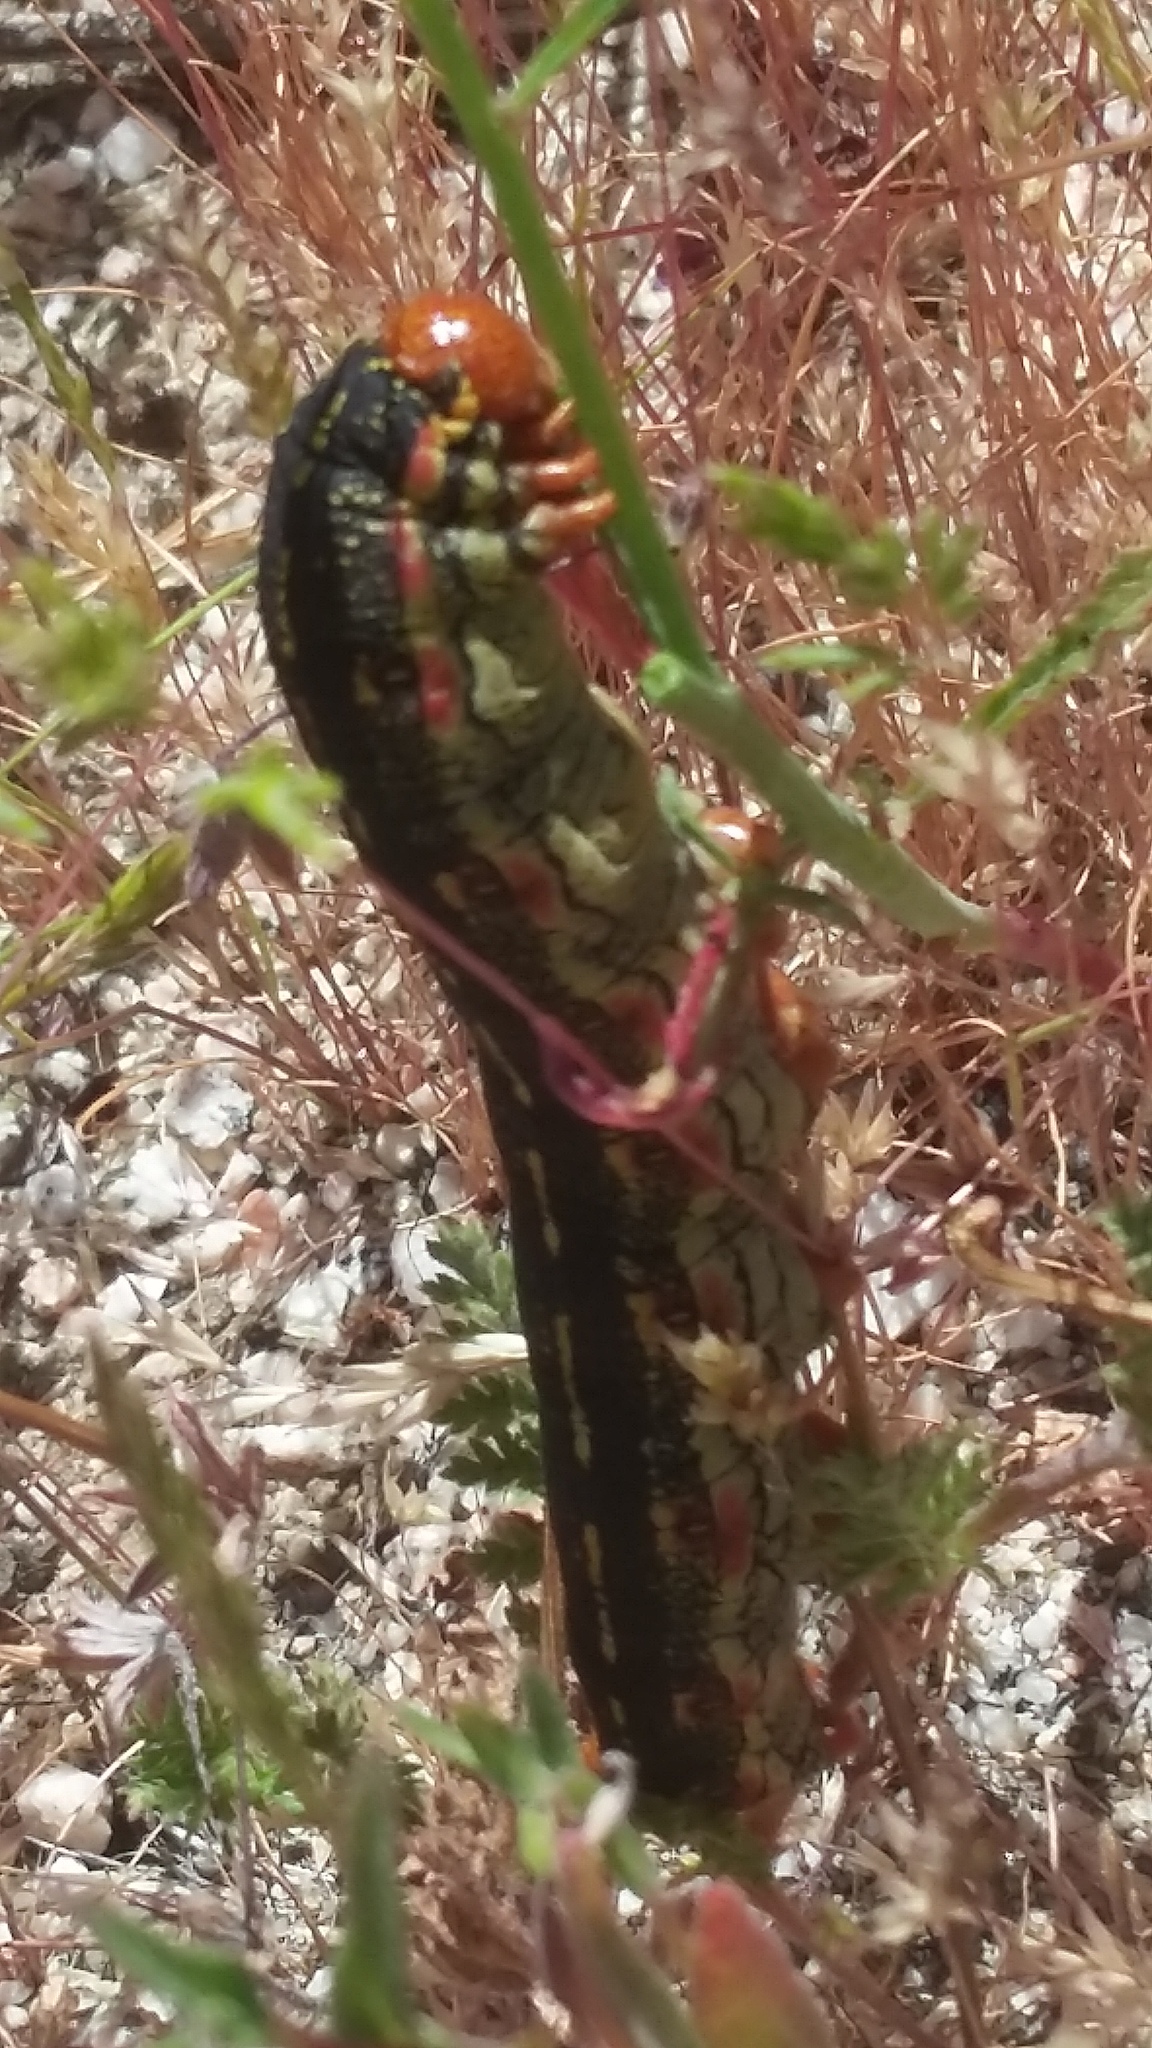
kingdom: Animalia
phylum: Arthropoda
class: Insecta
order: Lepidoptera
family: Sphingidae
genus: Hyles
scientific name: Hyles lineata
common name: White-lined sphinx
